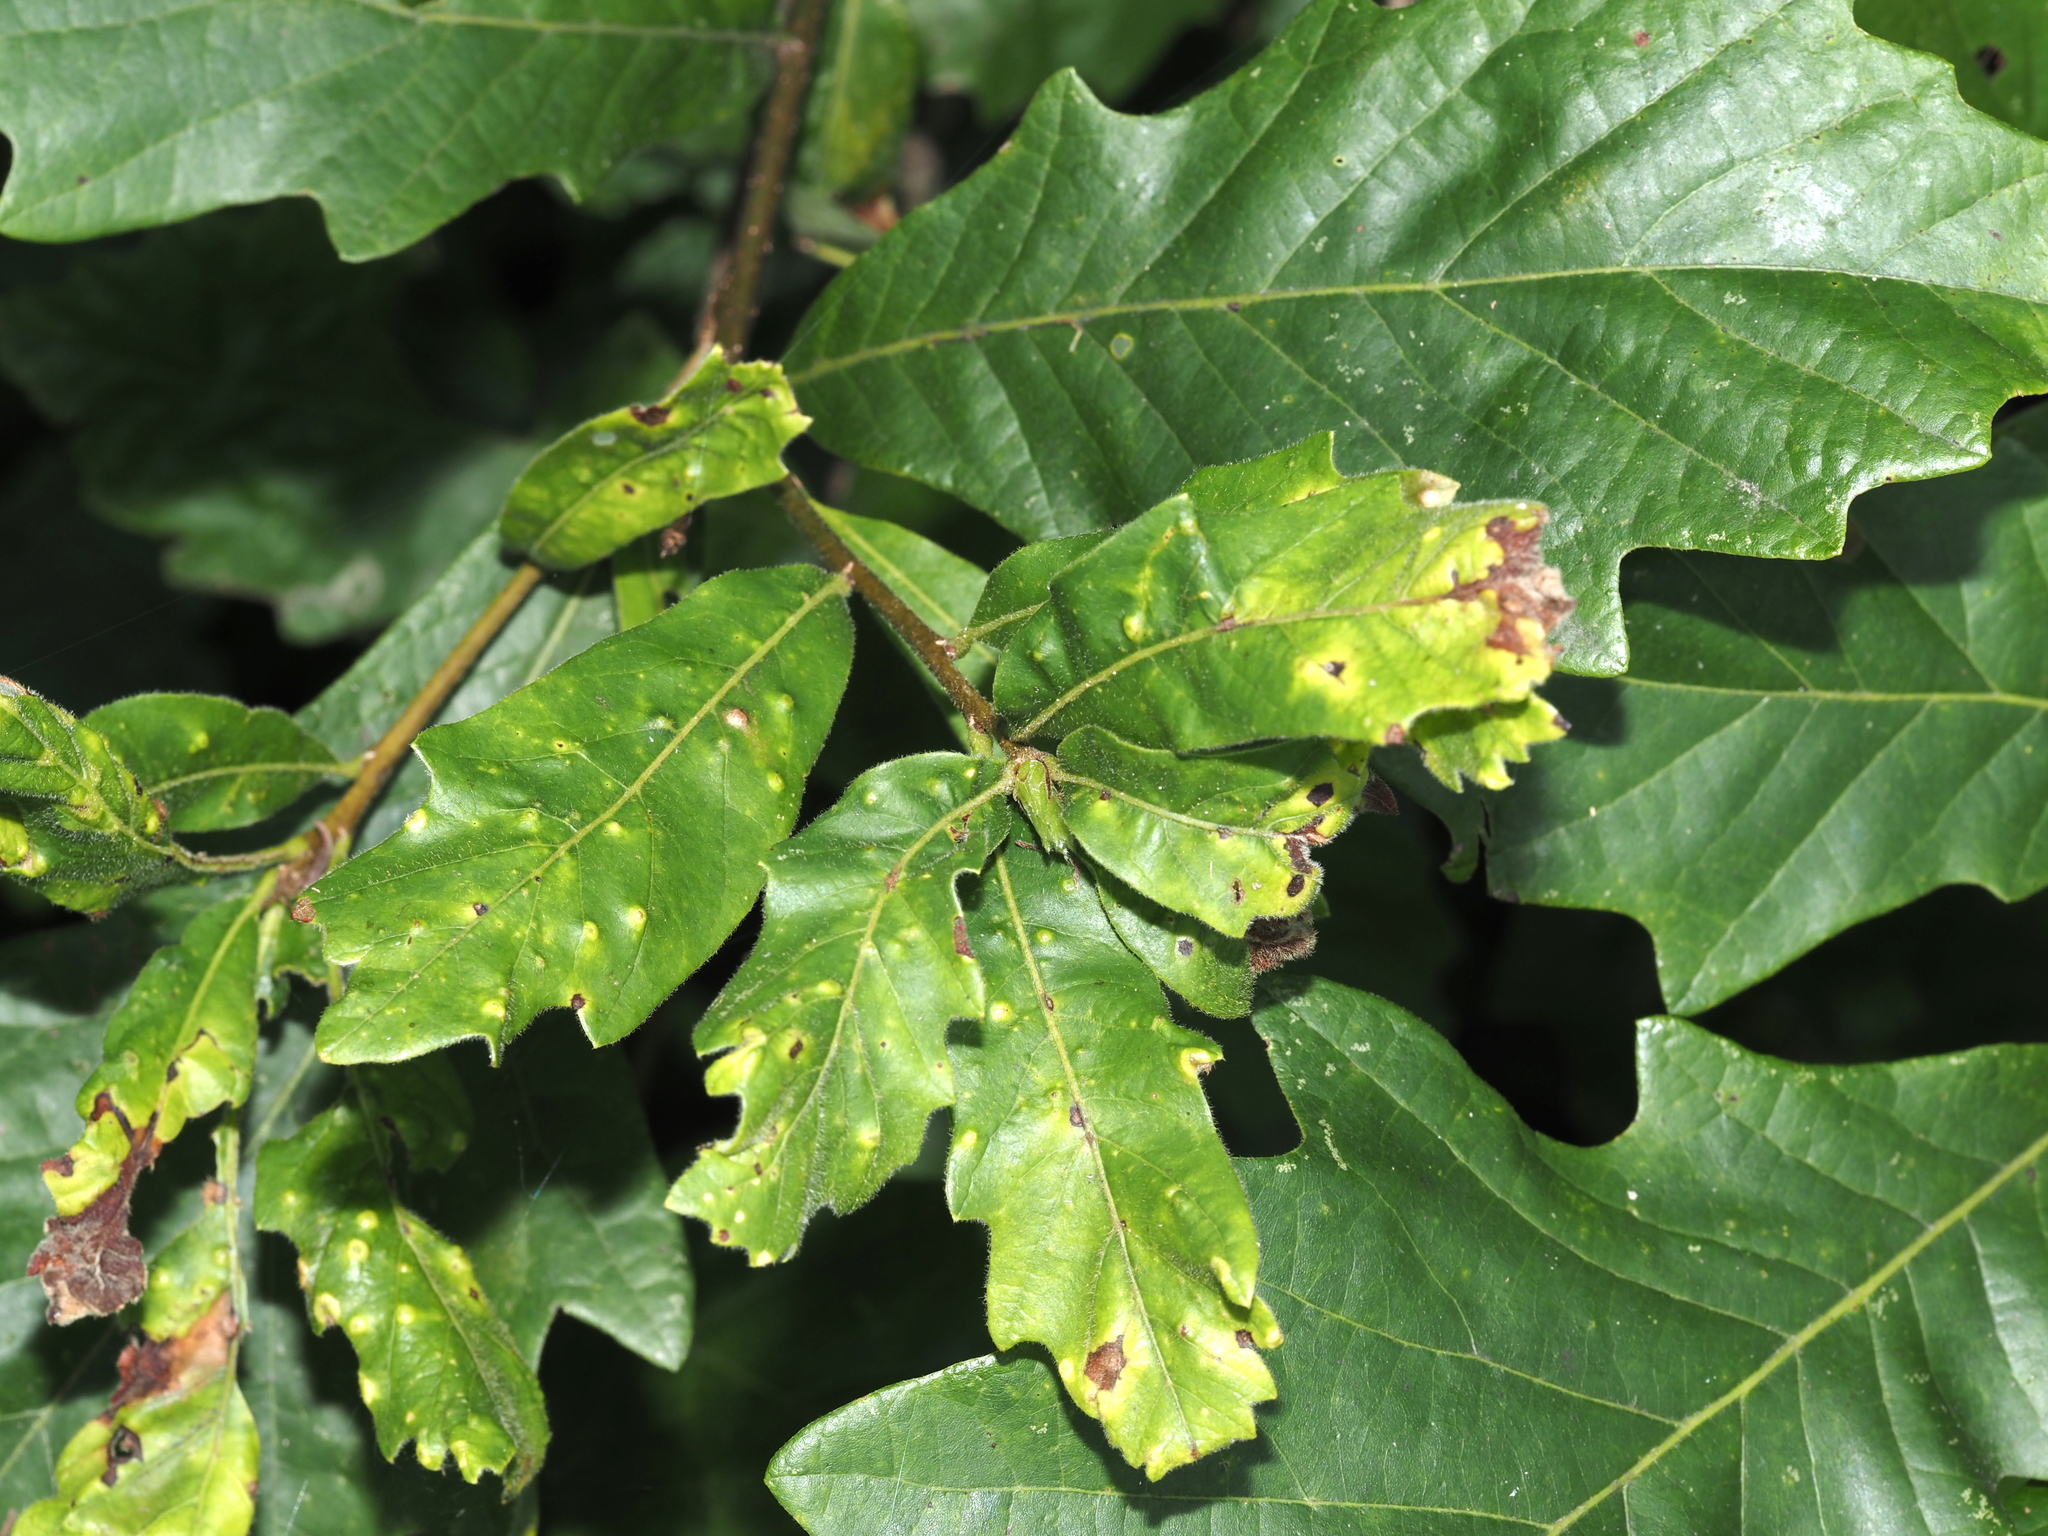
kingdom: Animalia
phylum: Arthropoda
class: Insecta
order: Hymenoptera
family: Cynipidae
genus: Neuroterus
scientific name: Neuroterus quercusverrucarum
